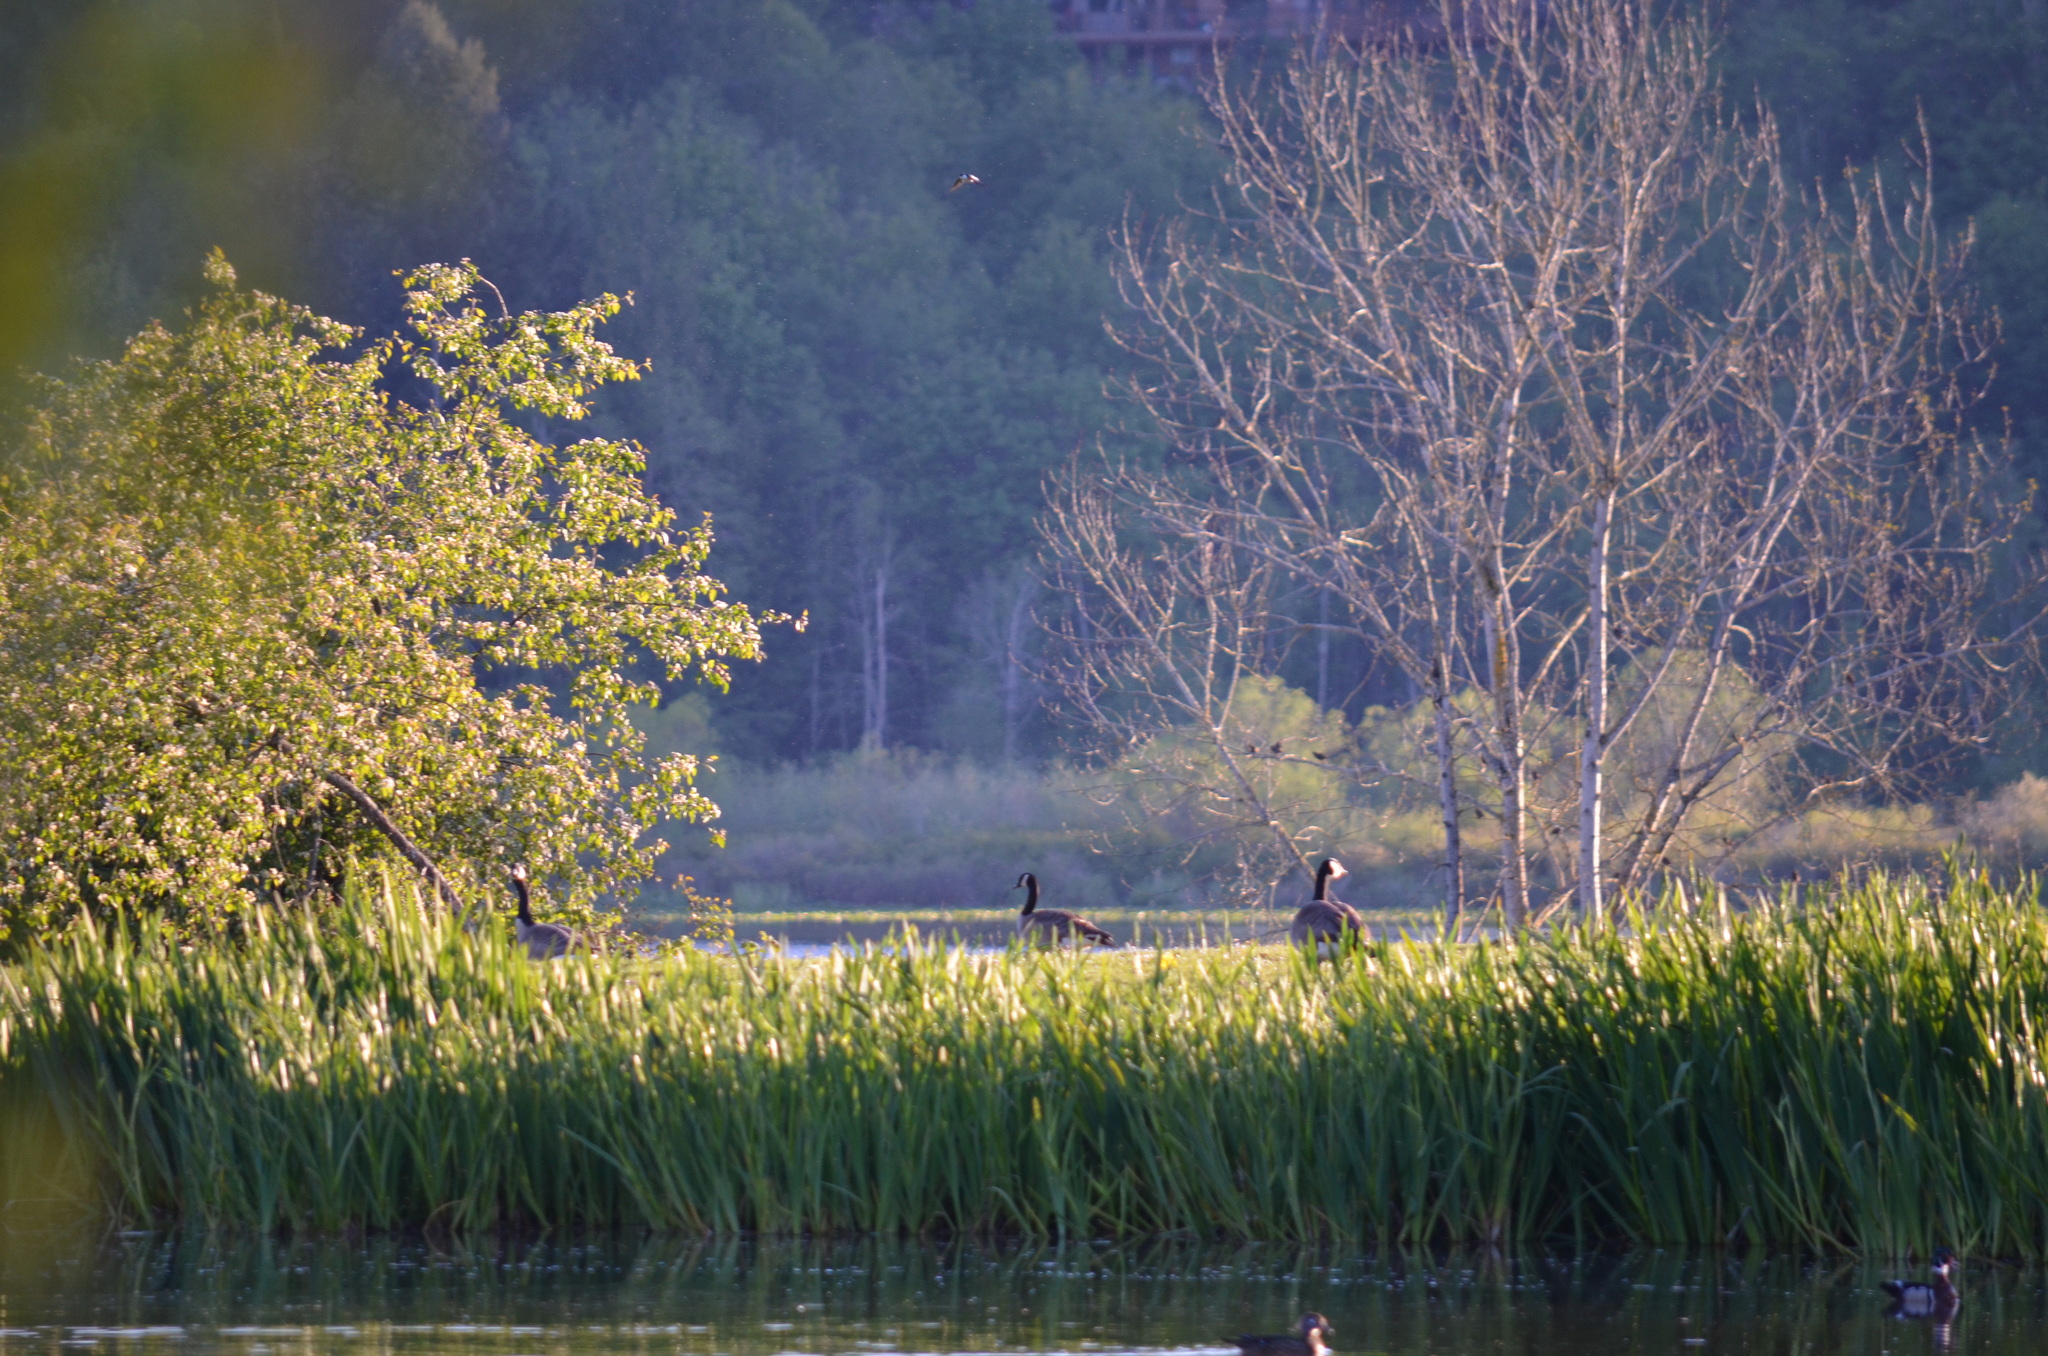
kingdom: Animalia
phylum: Chordata
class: Aves
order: Anseriformes
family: Anatidae
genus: Branta
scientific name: Branta canadensis
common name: Canada goose
